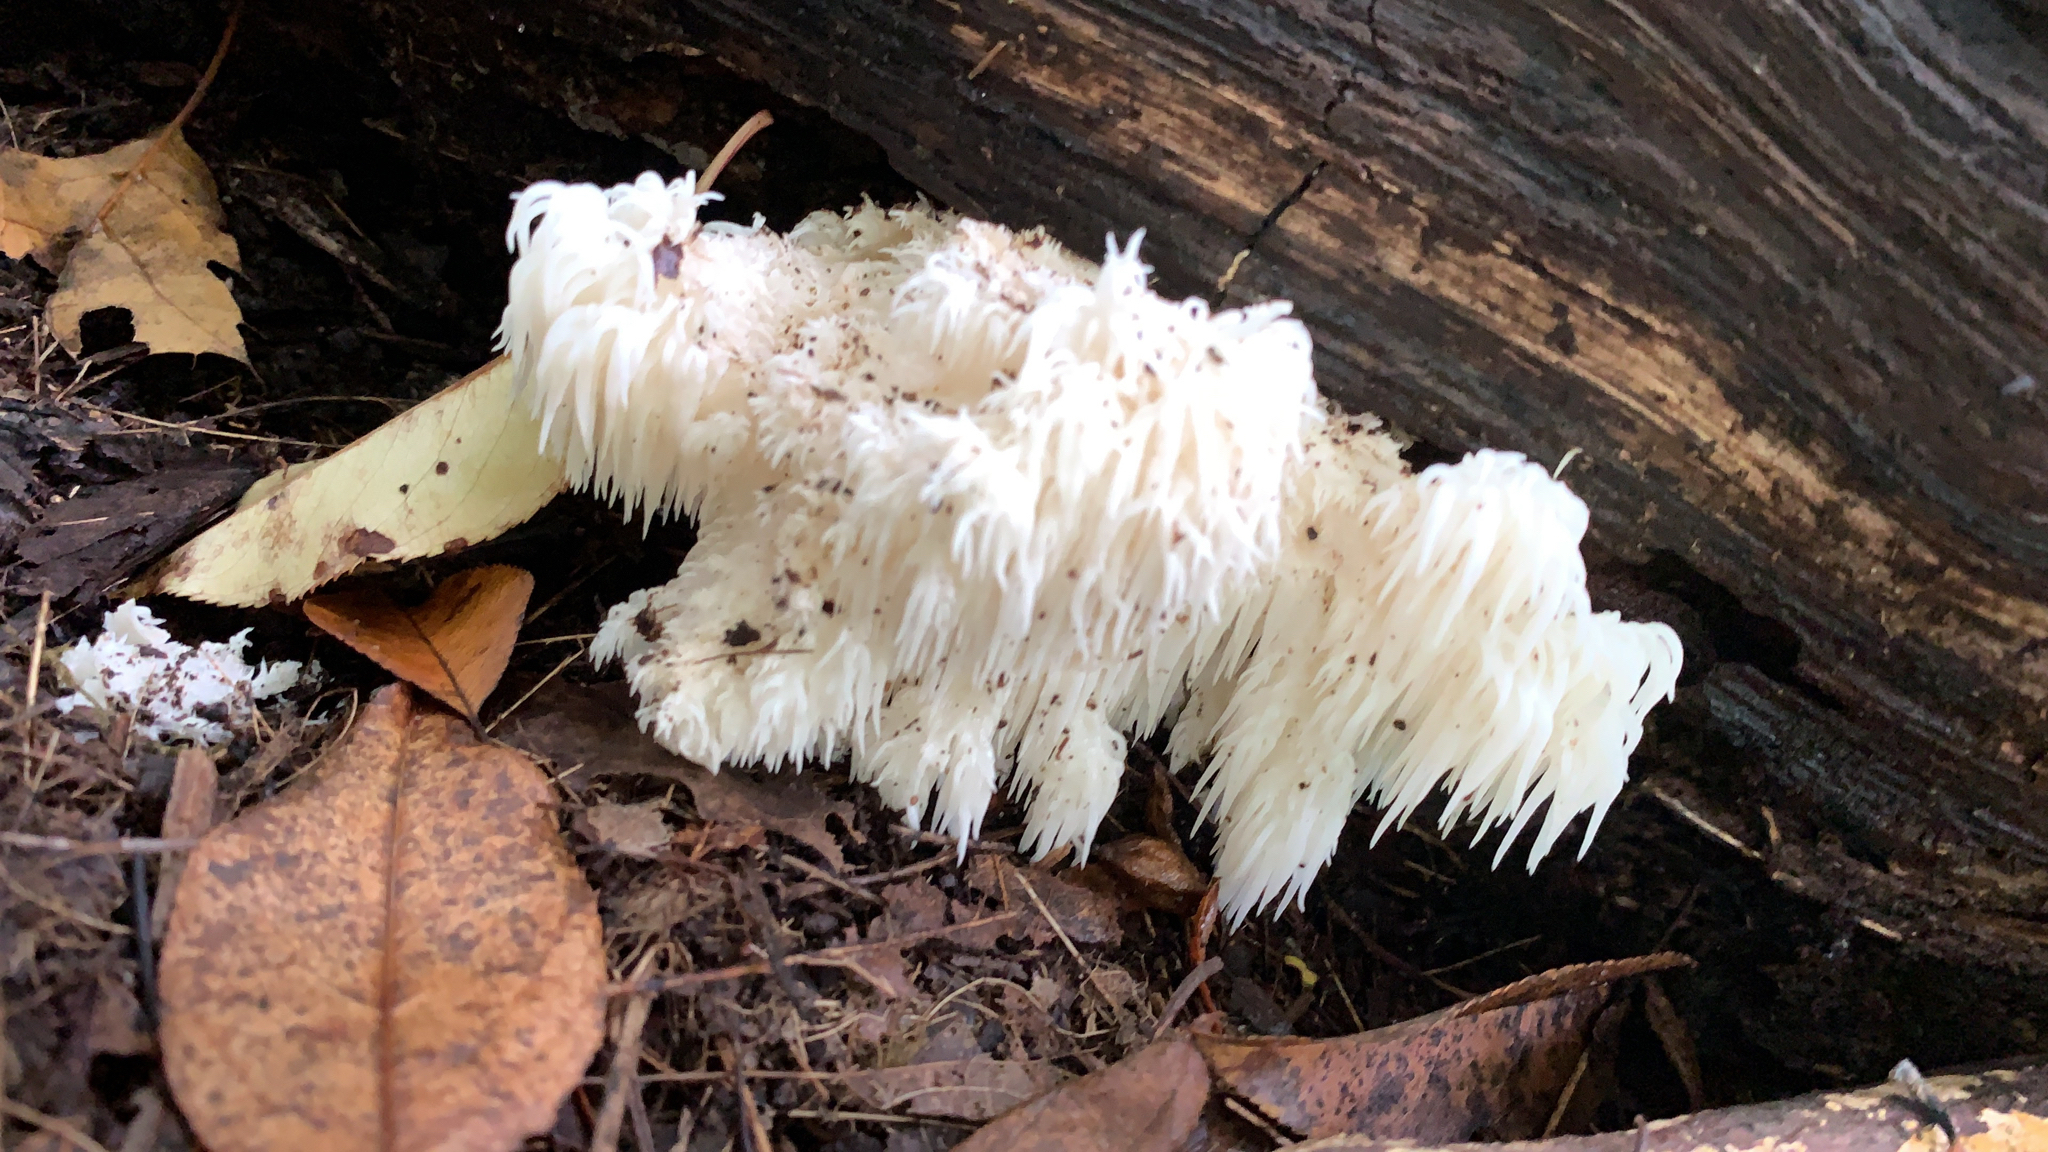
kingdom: Fungi
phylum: Basidiomycota
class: Agaricomycetes
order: Russulales
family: Hericiaceae
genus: Hericium
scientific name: Hericium americanum
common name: Bear's head tooth
